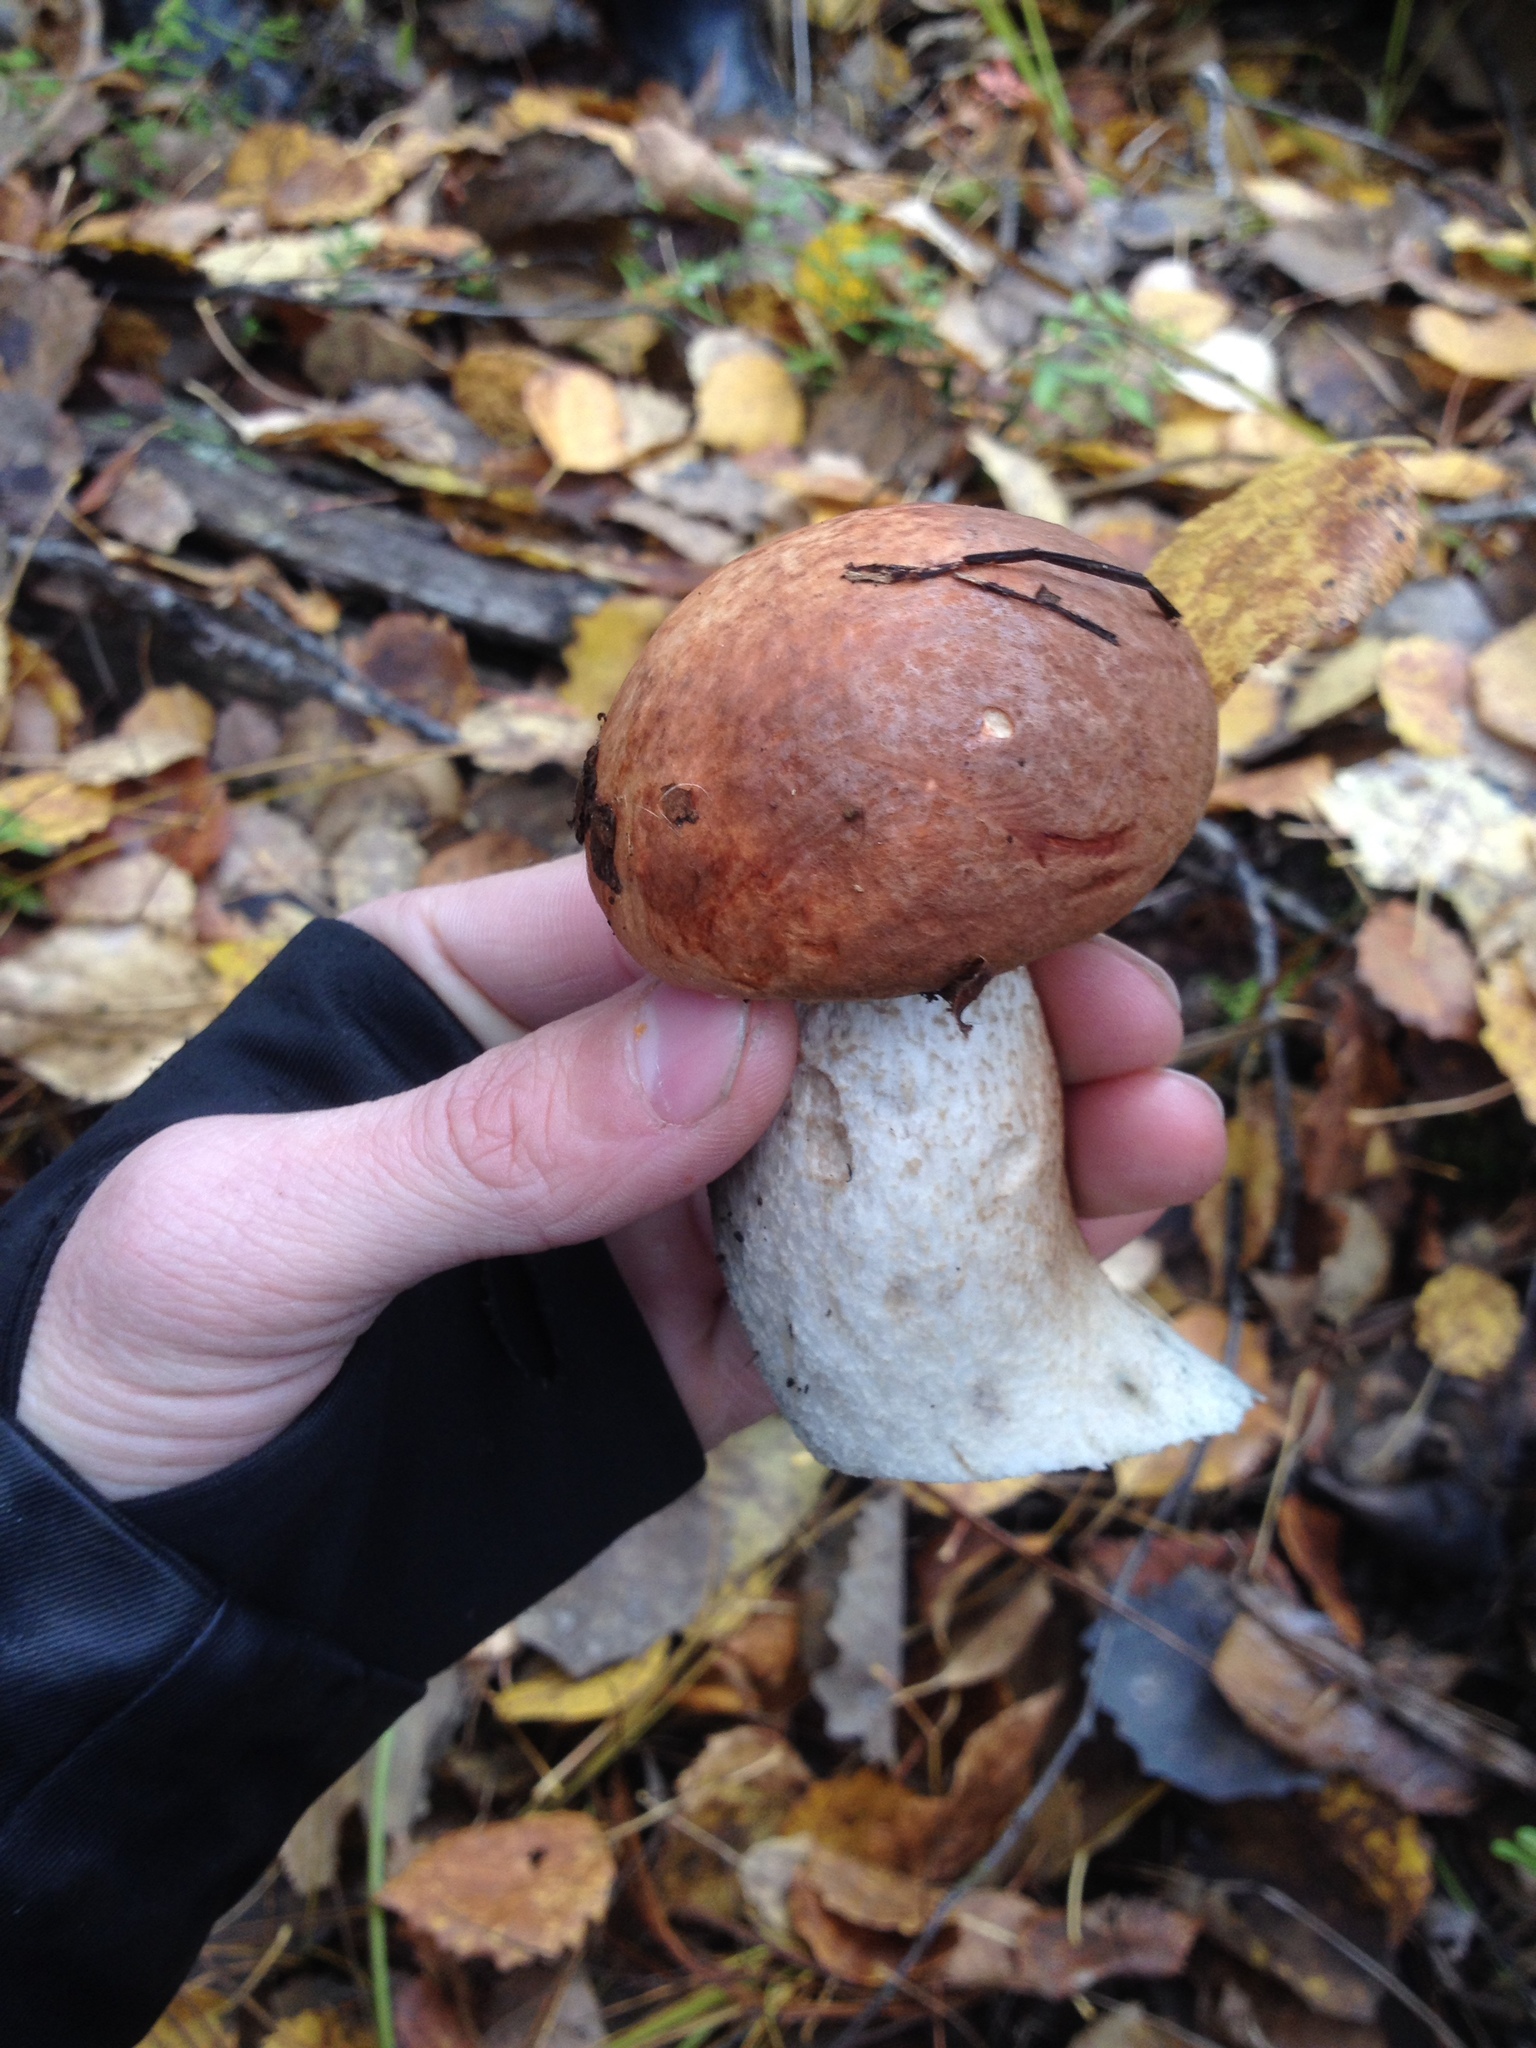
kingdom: Fungi
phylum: Basidiomycota
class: Agaricomycetes
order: Boletales
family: Boletaceae
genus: Leccinum
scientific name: Leccinum albostipitatum
